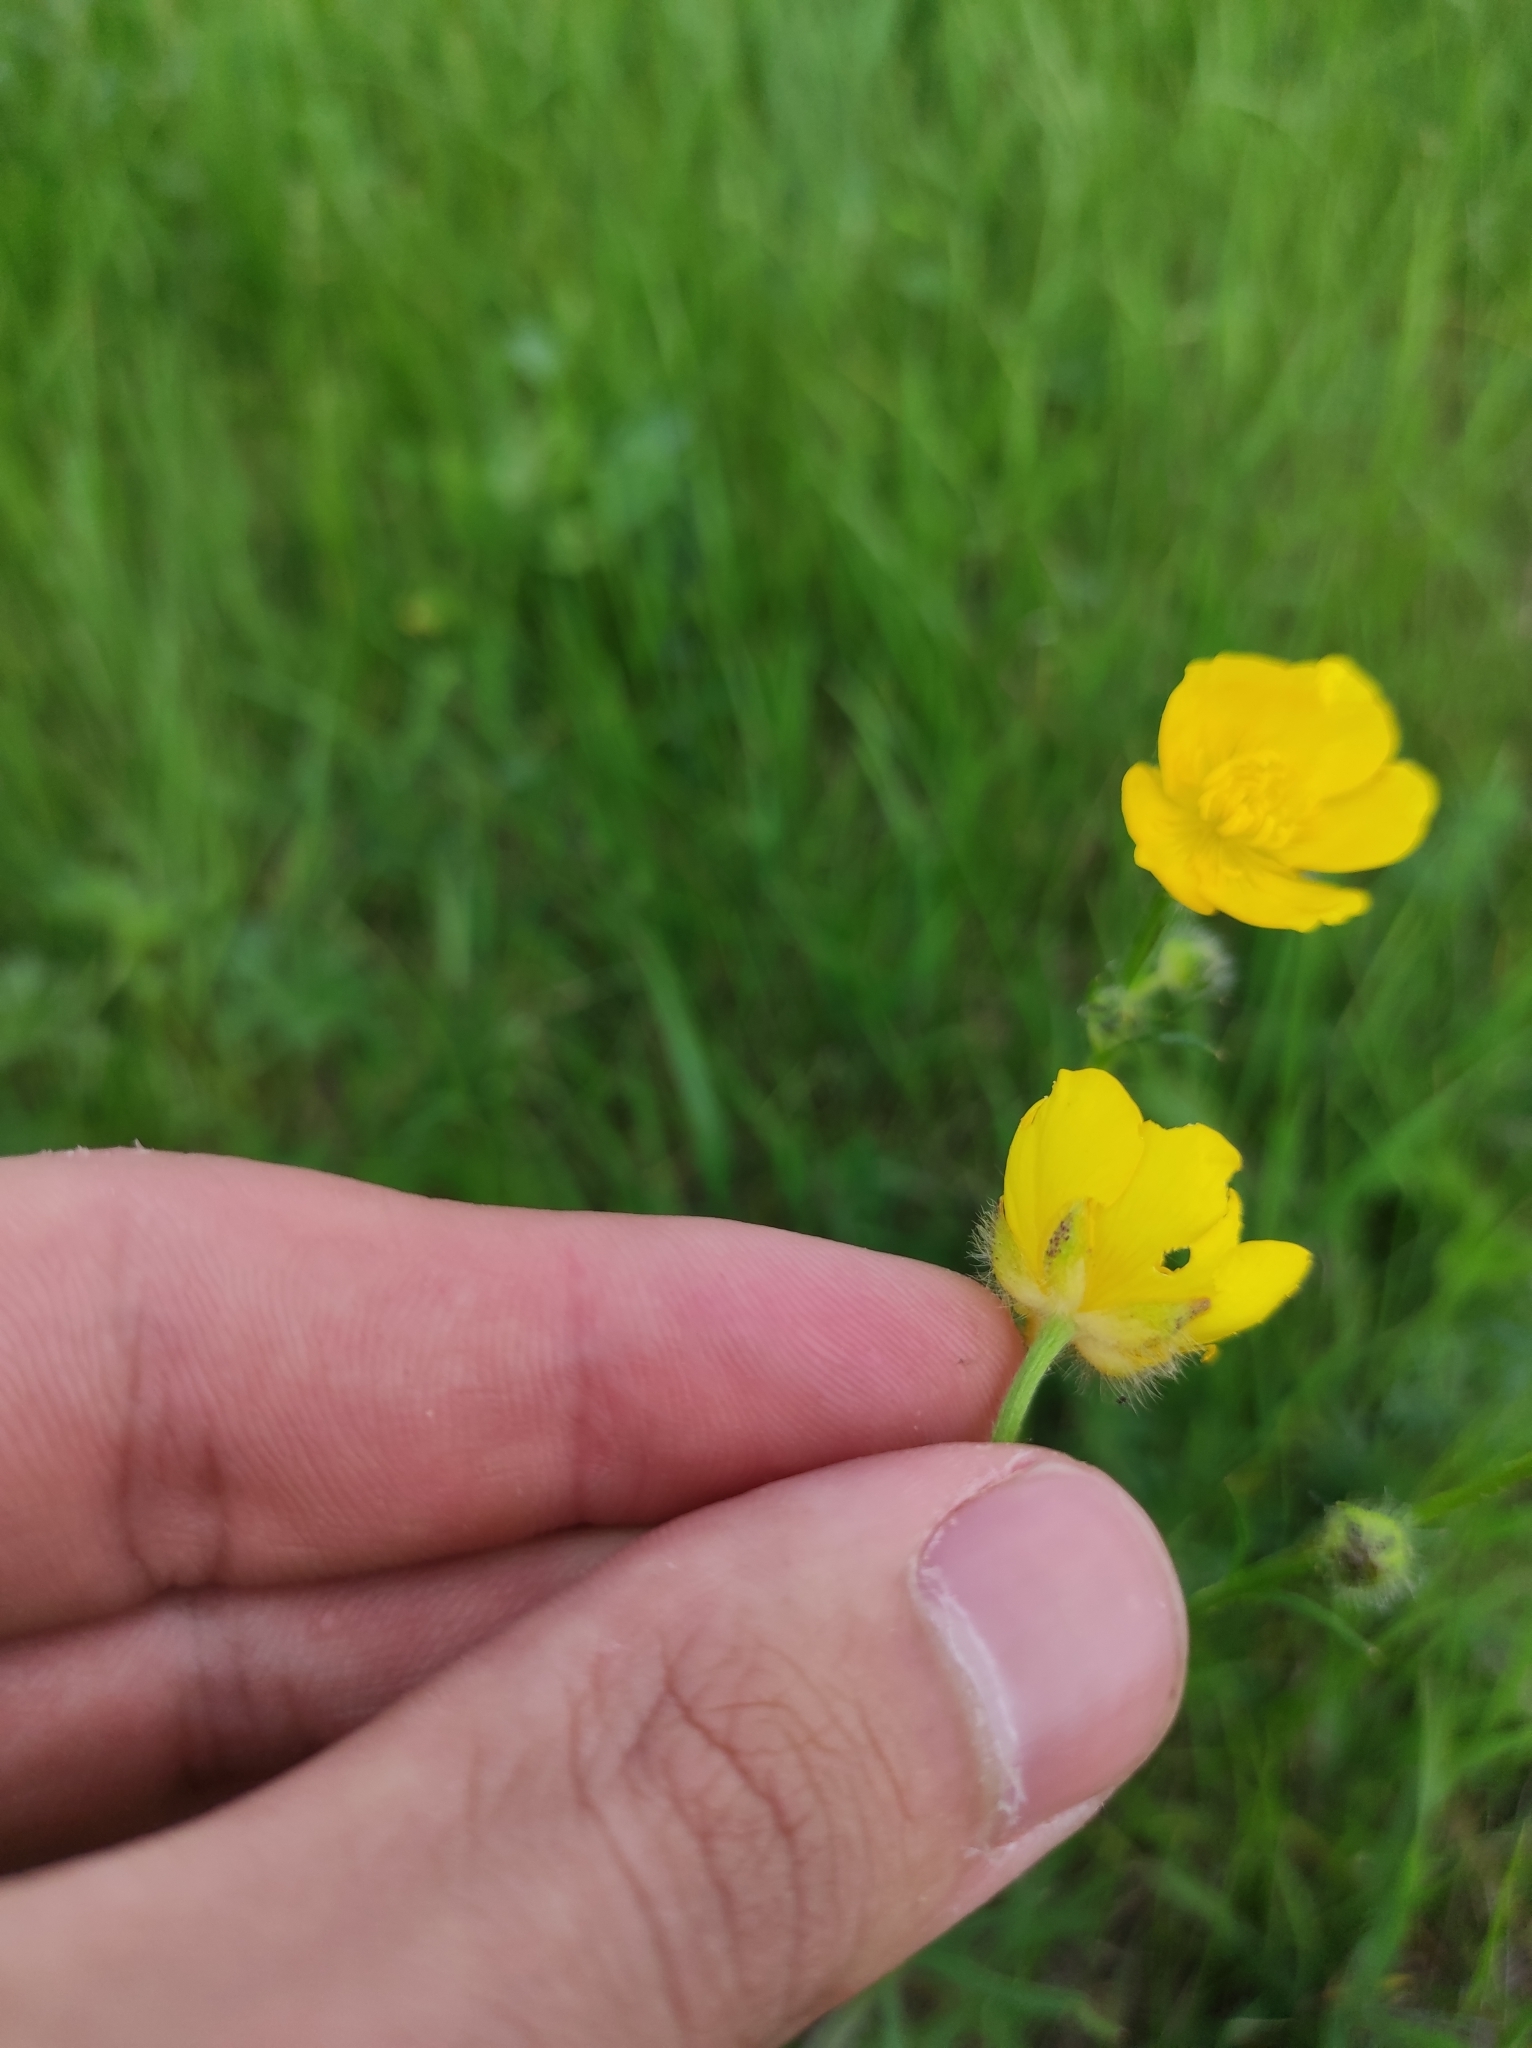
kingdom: Plantae
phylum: Tracheophyta
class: Magnoliopsida
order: Ranunculales
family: Ranunculaceae
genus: Ranunculus
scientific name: Ranunculus polyanthemos
